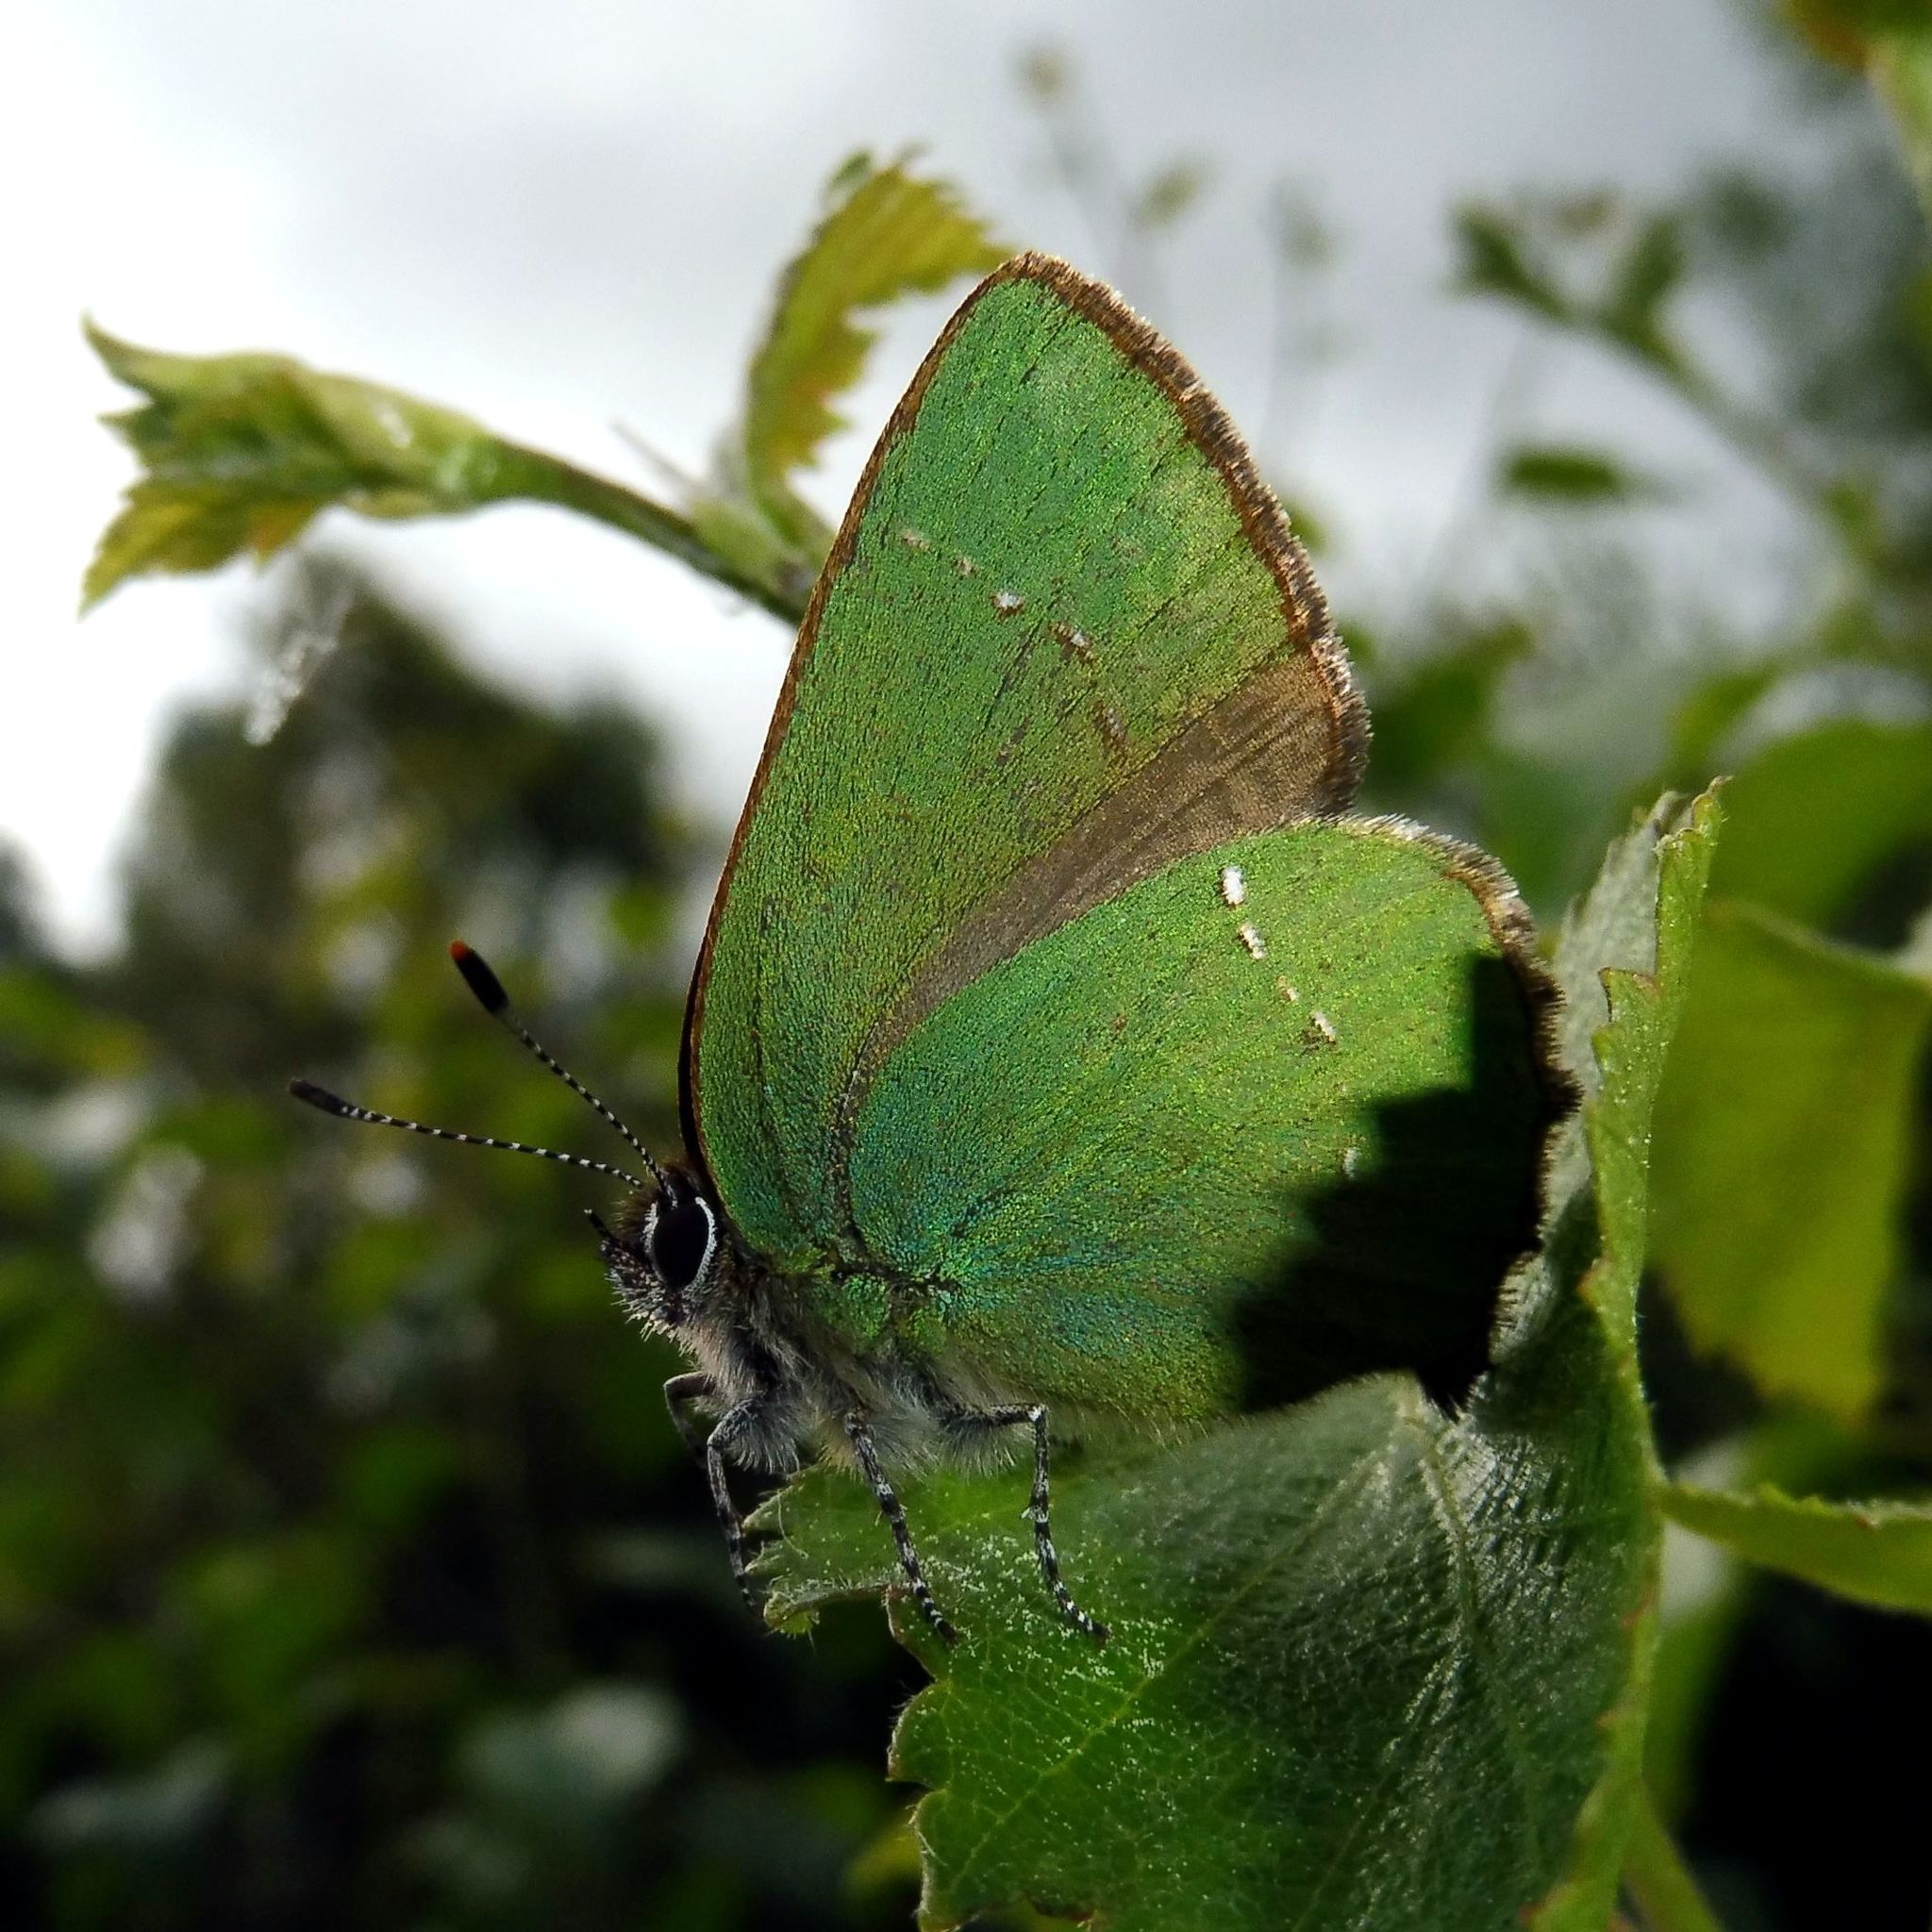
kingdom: Animalia
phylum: Arthropoda
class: Insecta
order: Lepidoptera
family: Lycaenidae
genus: Callophrys
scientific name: Callophrys rubi
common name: Green hairstreak
